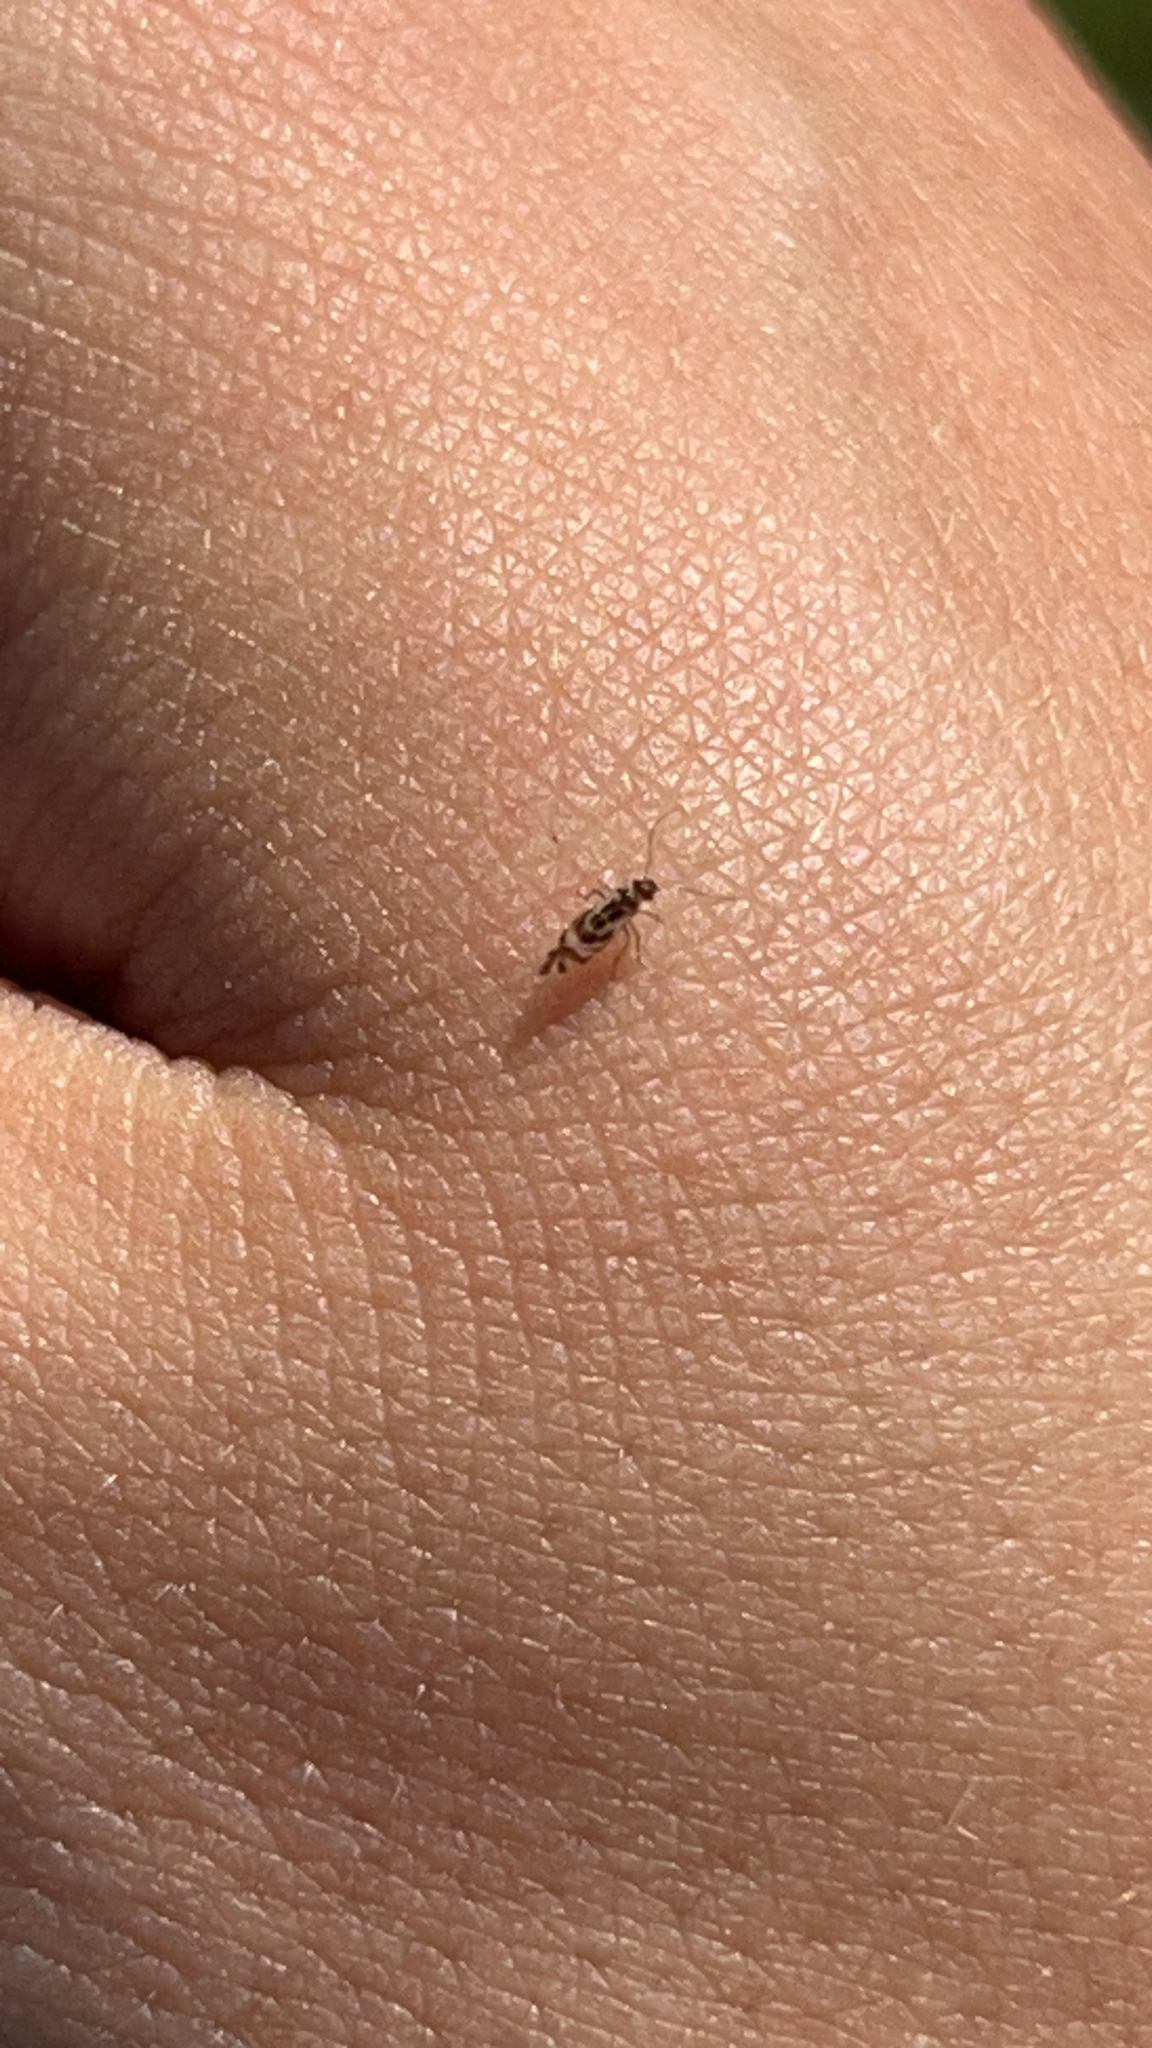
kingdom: Animalia
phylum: Arthropoda
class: Insecta
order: Psocodea
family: Stenopsocidae
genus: Graphopsocus
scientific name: Graphopsocus cruciatus
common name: Lizard bark louse
